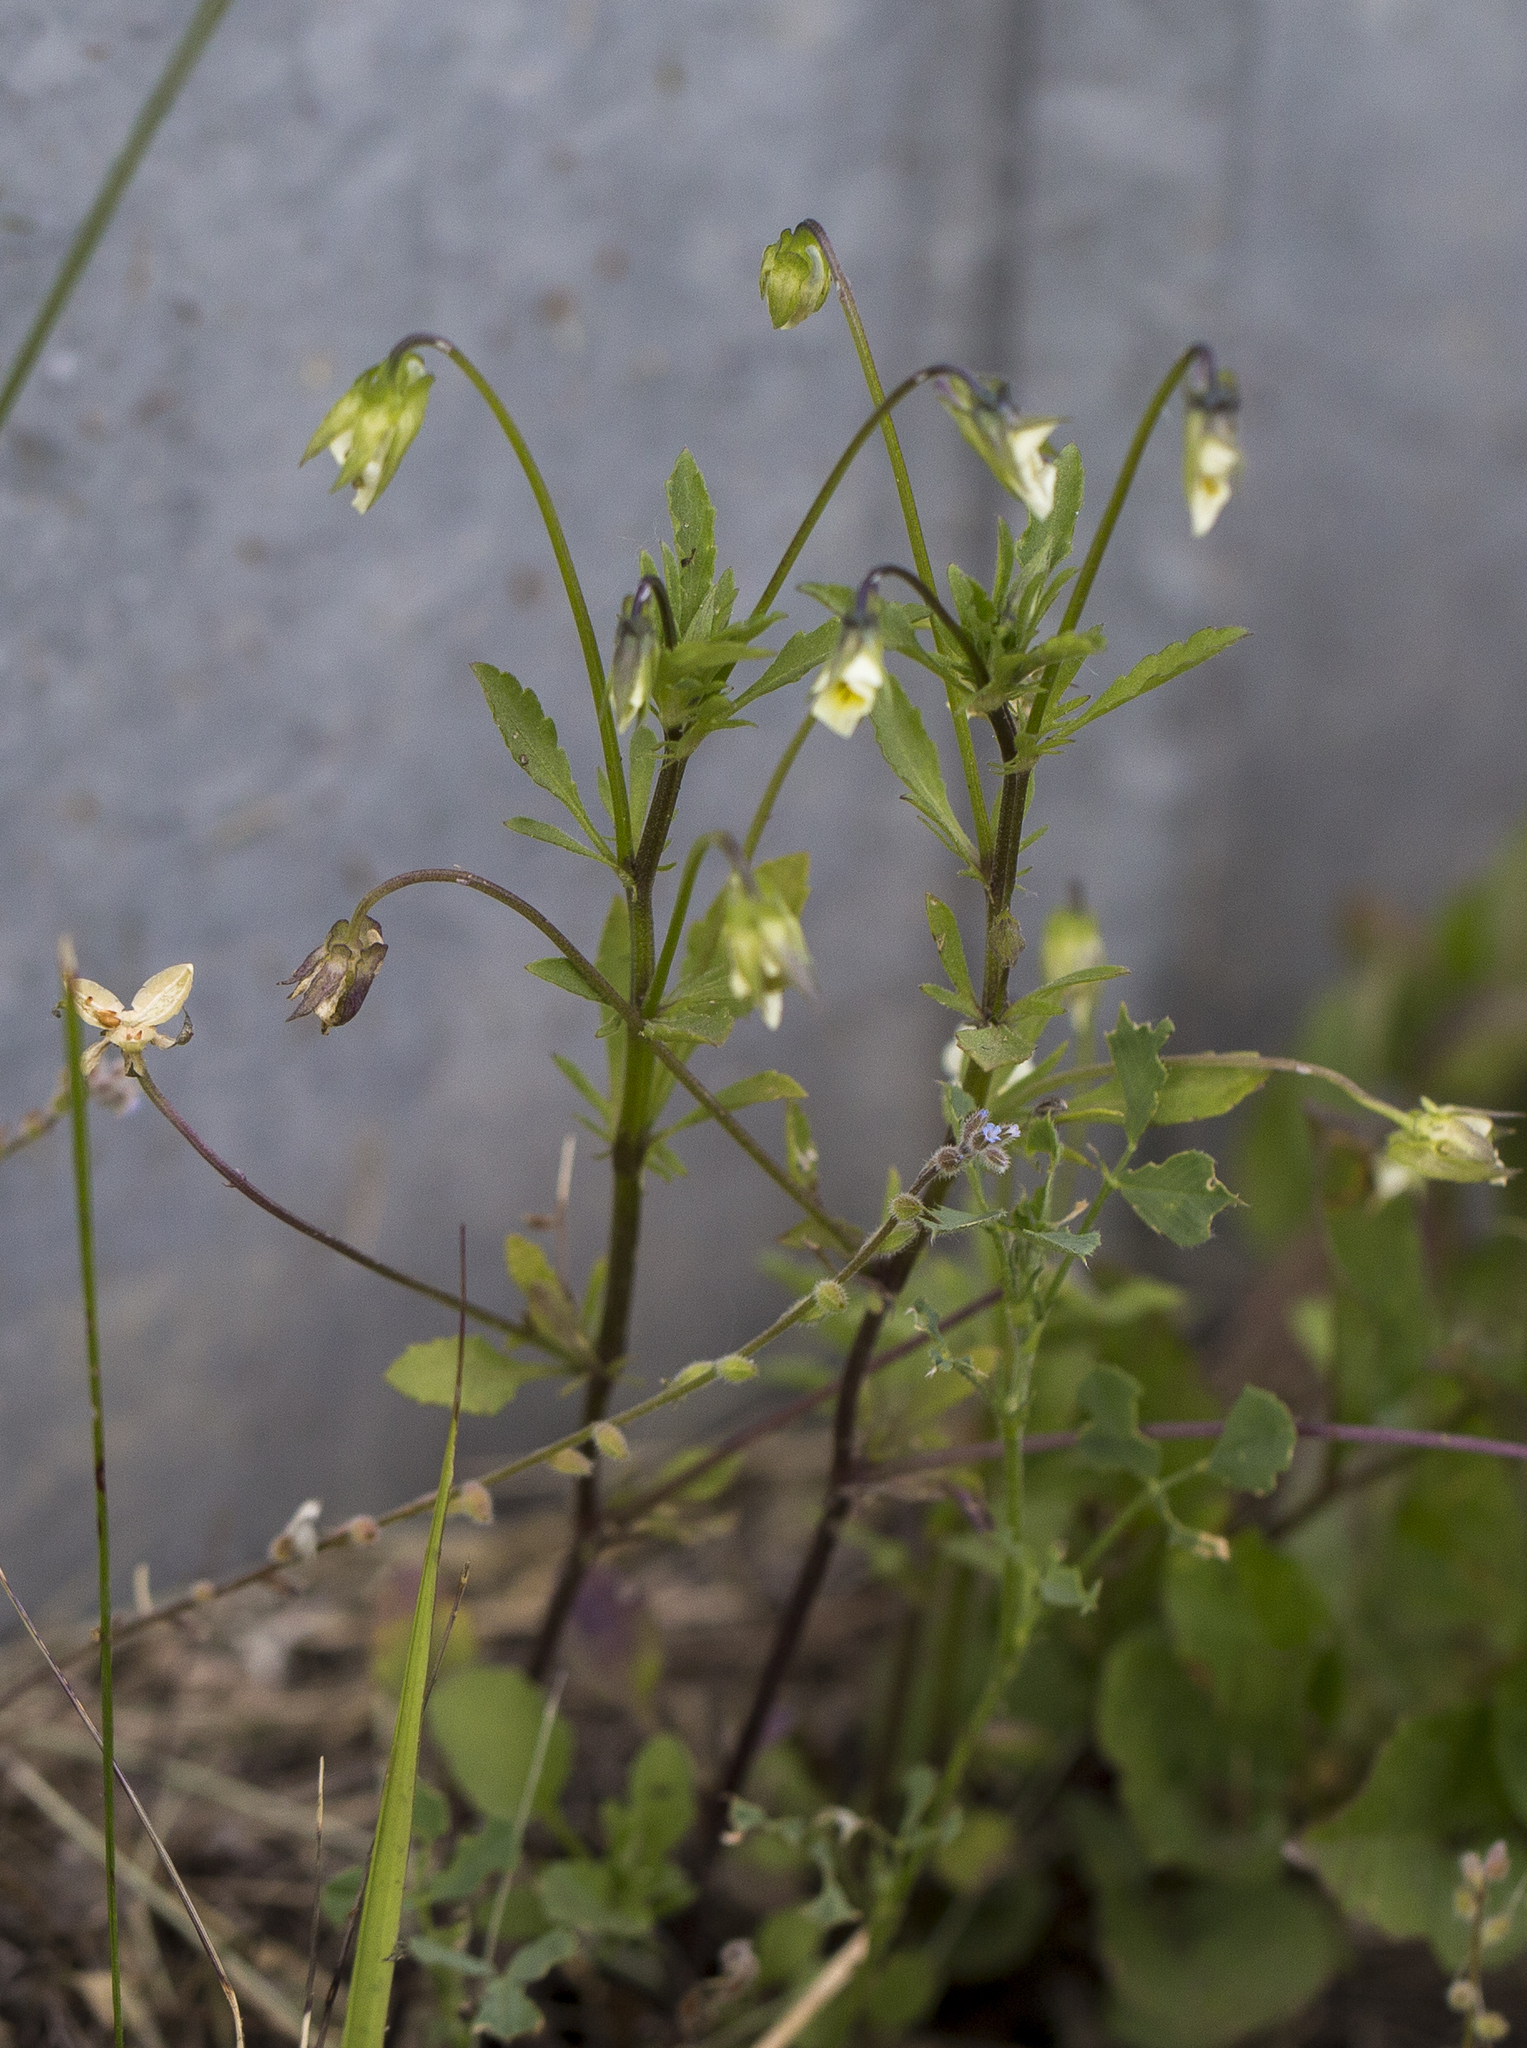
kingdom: Plantae
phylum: Tracheophyta
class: Magnoliopsida
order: Malpighiales
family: Violaceae
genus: Viola
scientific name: Viola arvensis
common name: Field pansy
